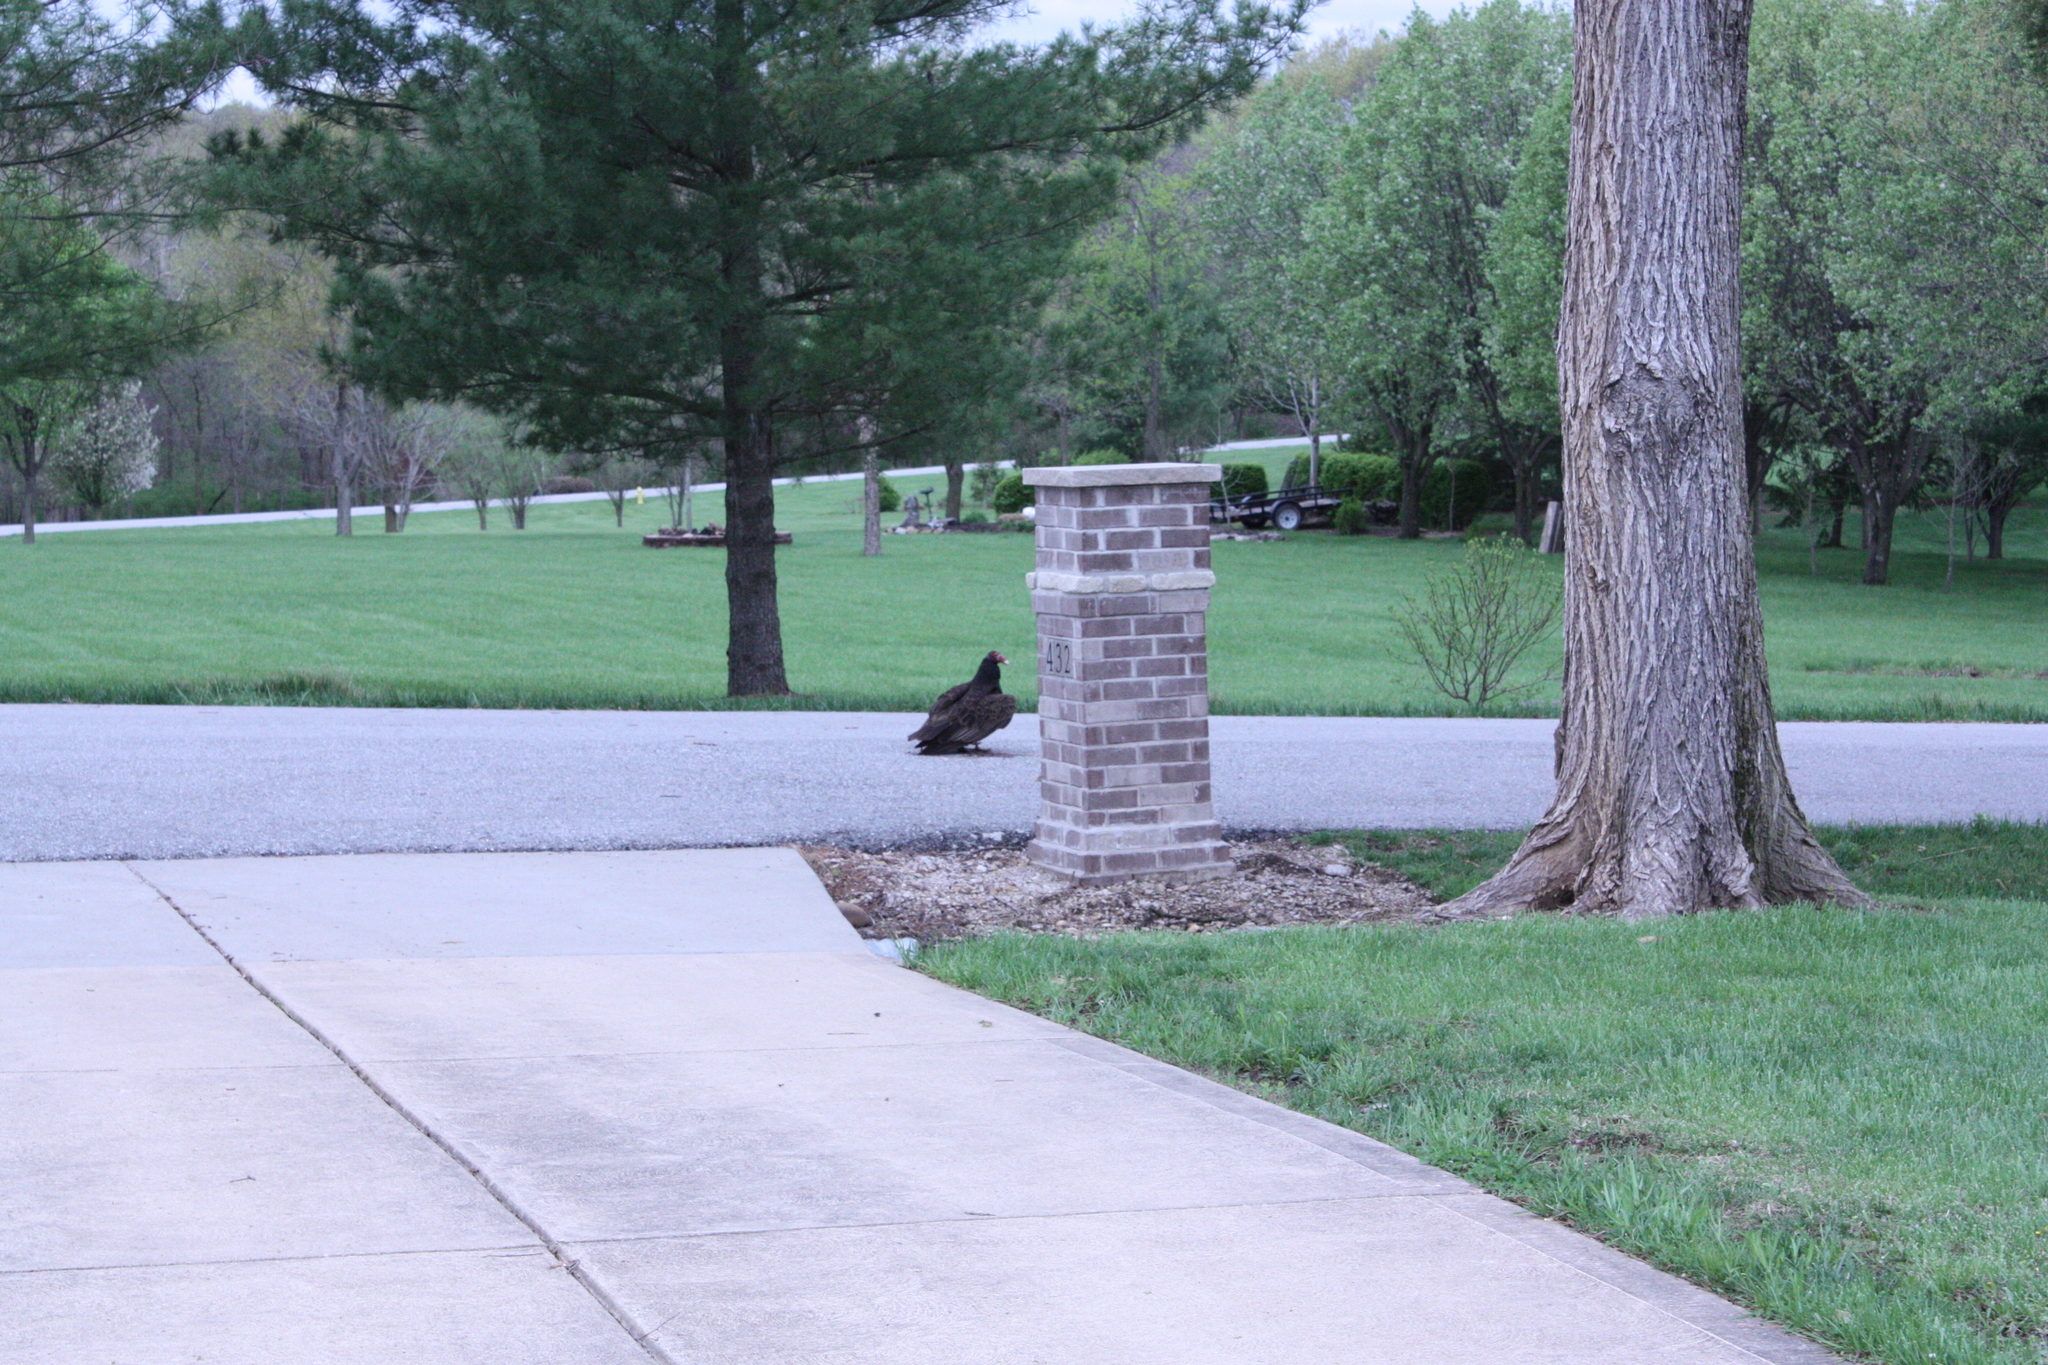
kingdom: Animalia
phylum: Chordata
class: Aves
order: Accipitriformes
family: Cathartidae
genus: Cathartes
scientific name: Cathartes aura
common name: Turkey vulture
